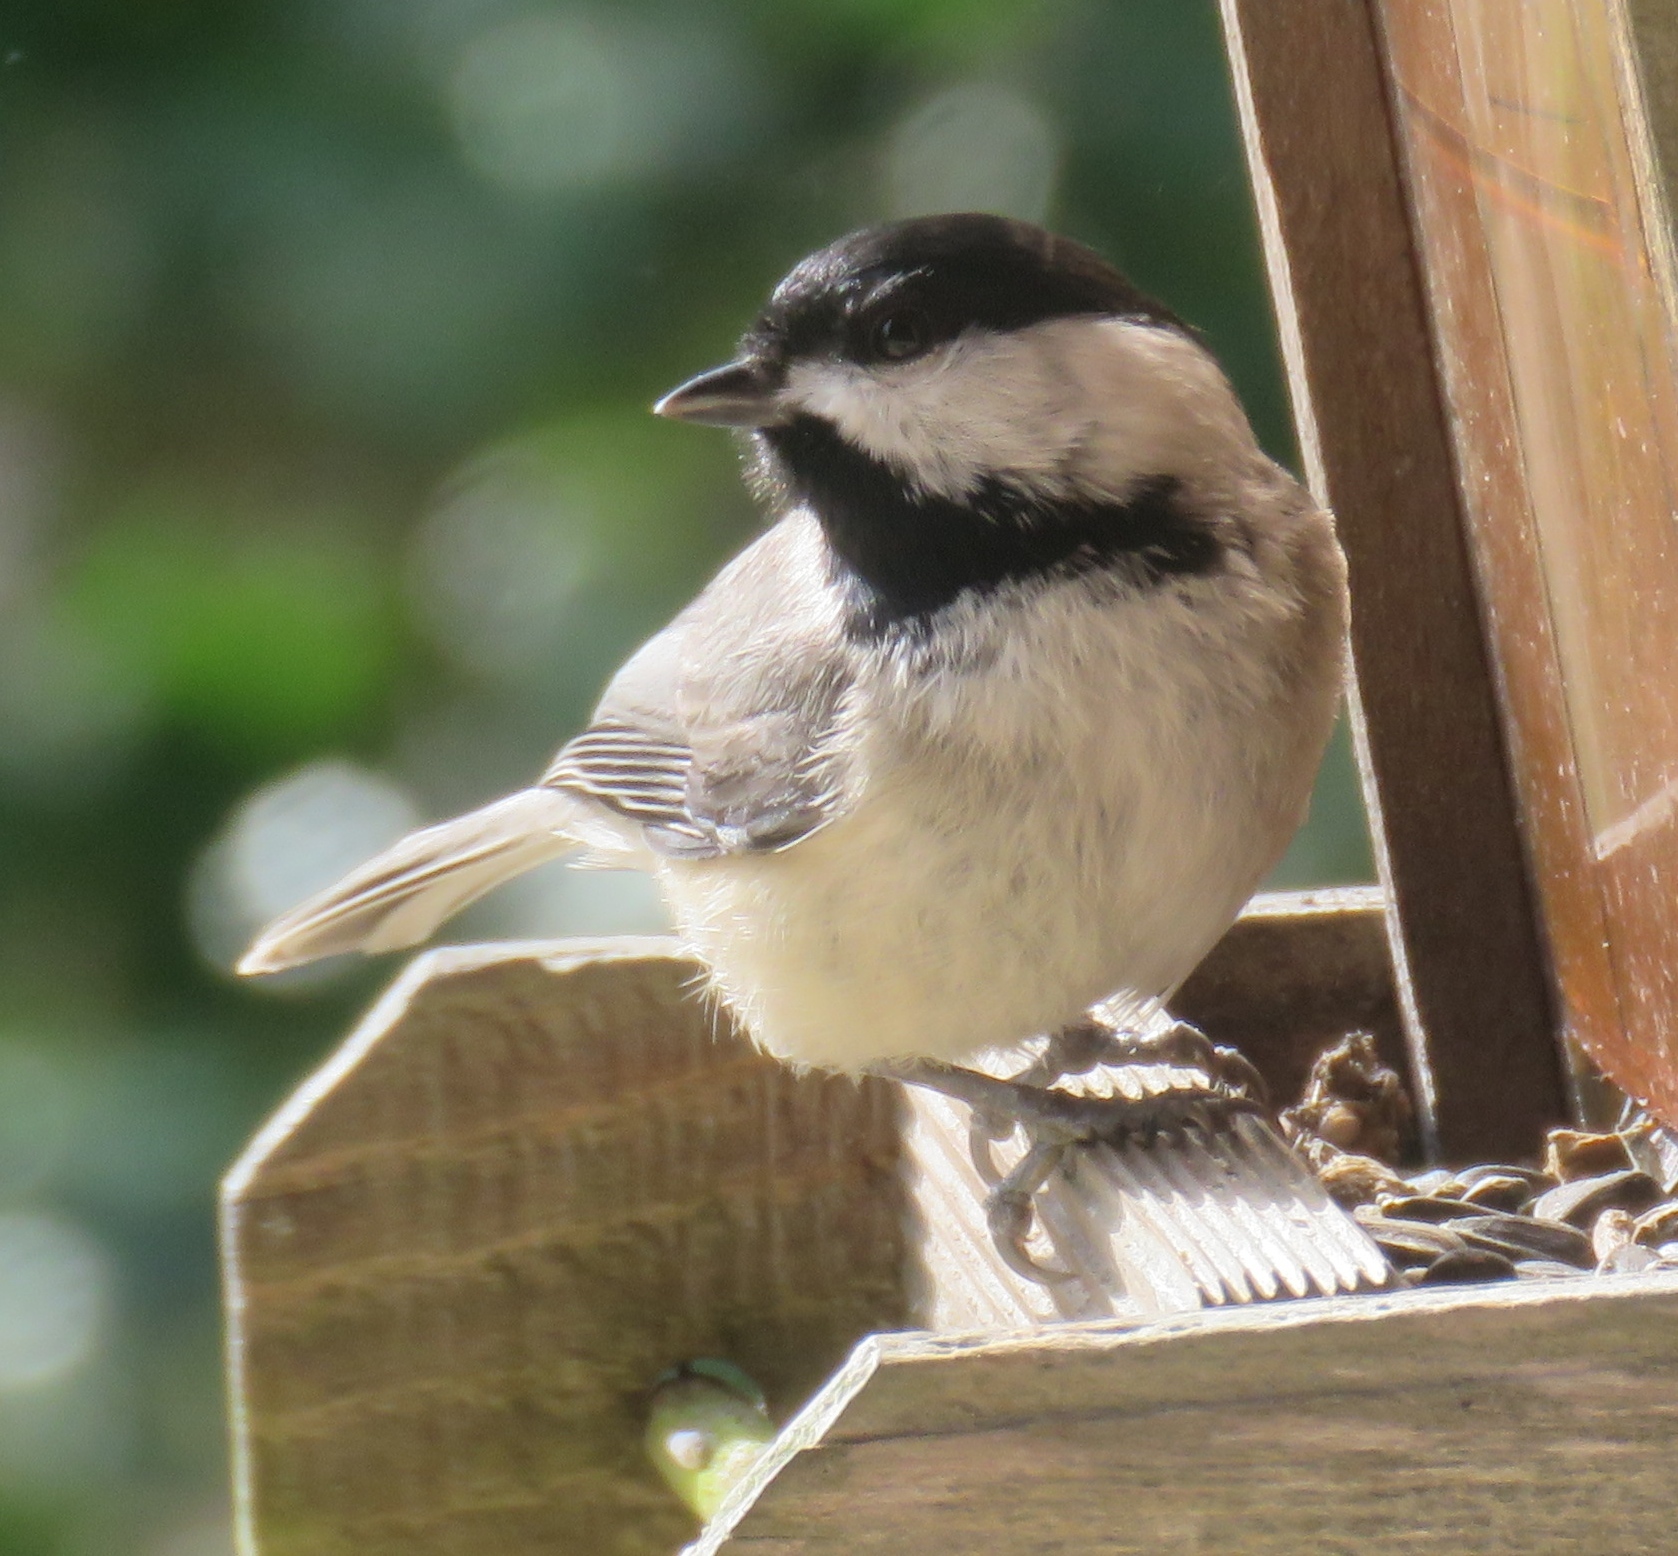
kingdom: Animalia
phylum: Chordata
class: Aves
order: Passeriformes
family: Paridae
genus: Poecile
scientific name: Poecile carolinensis
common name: Carolina chickadee
